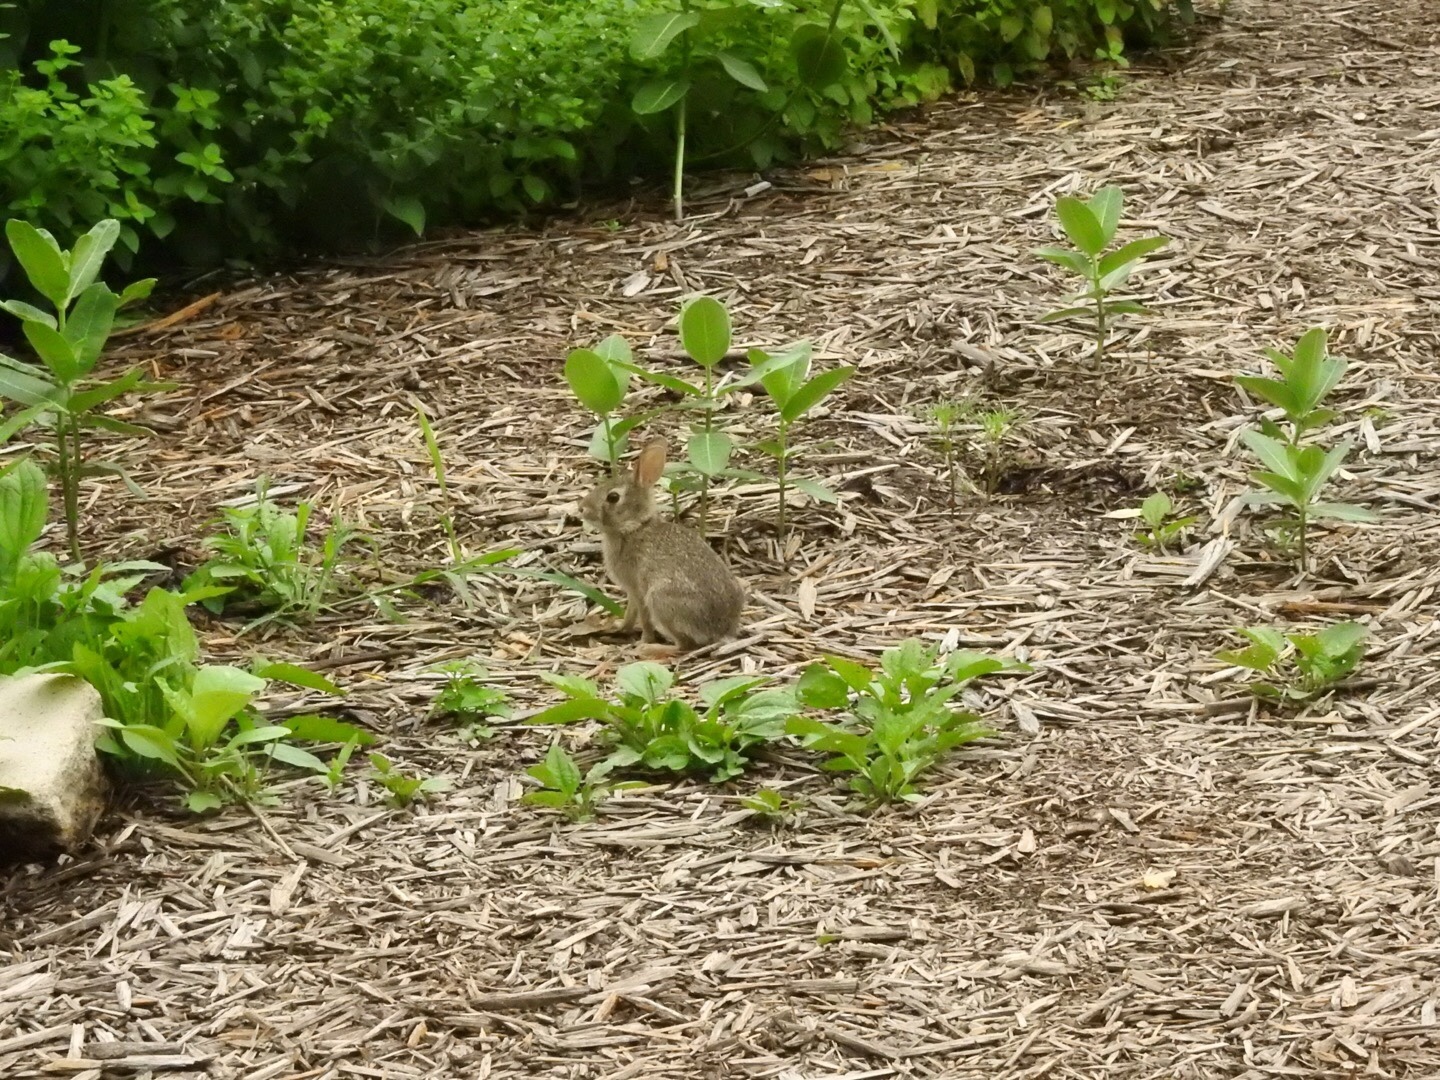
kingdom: Animalia
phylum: Chordata
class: Mammalia
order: Lagomorpha
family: Leporidae
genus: Sylvilagus
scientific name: Sylvilagus floridanus
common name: Eastern cottontail
